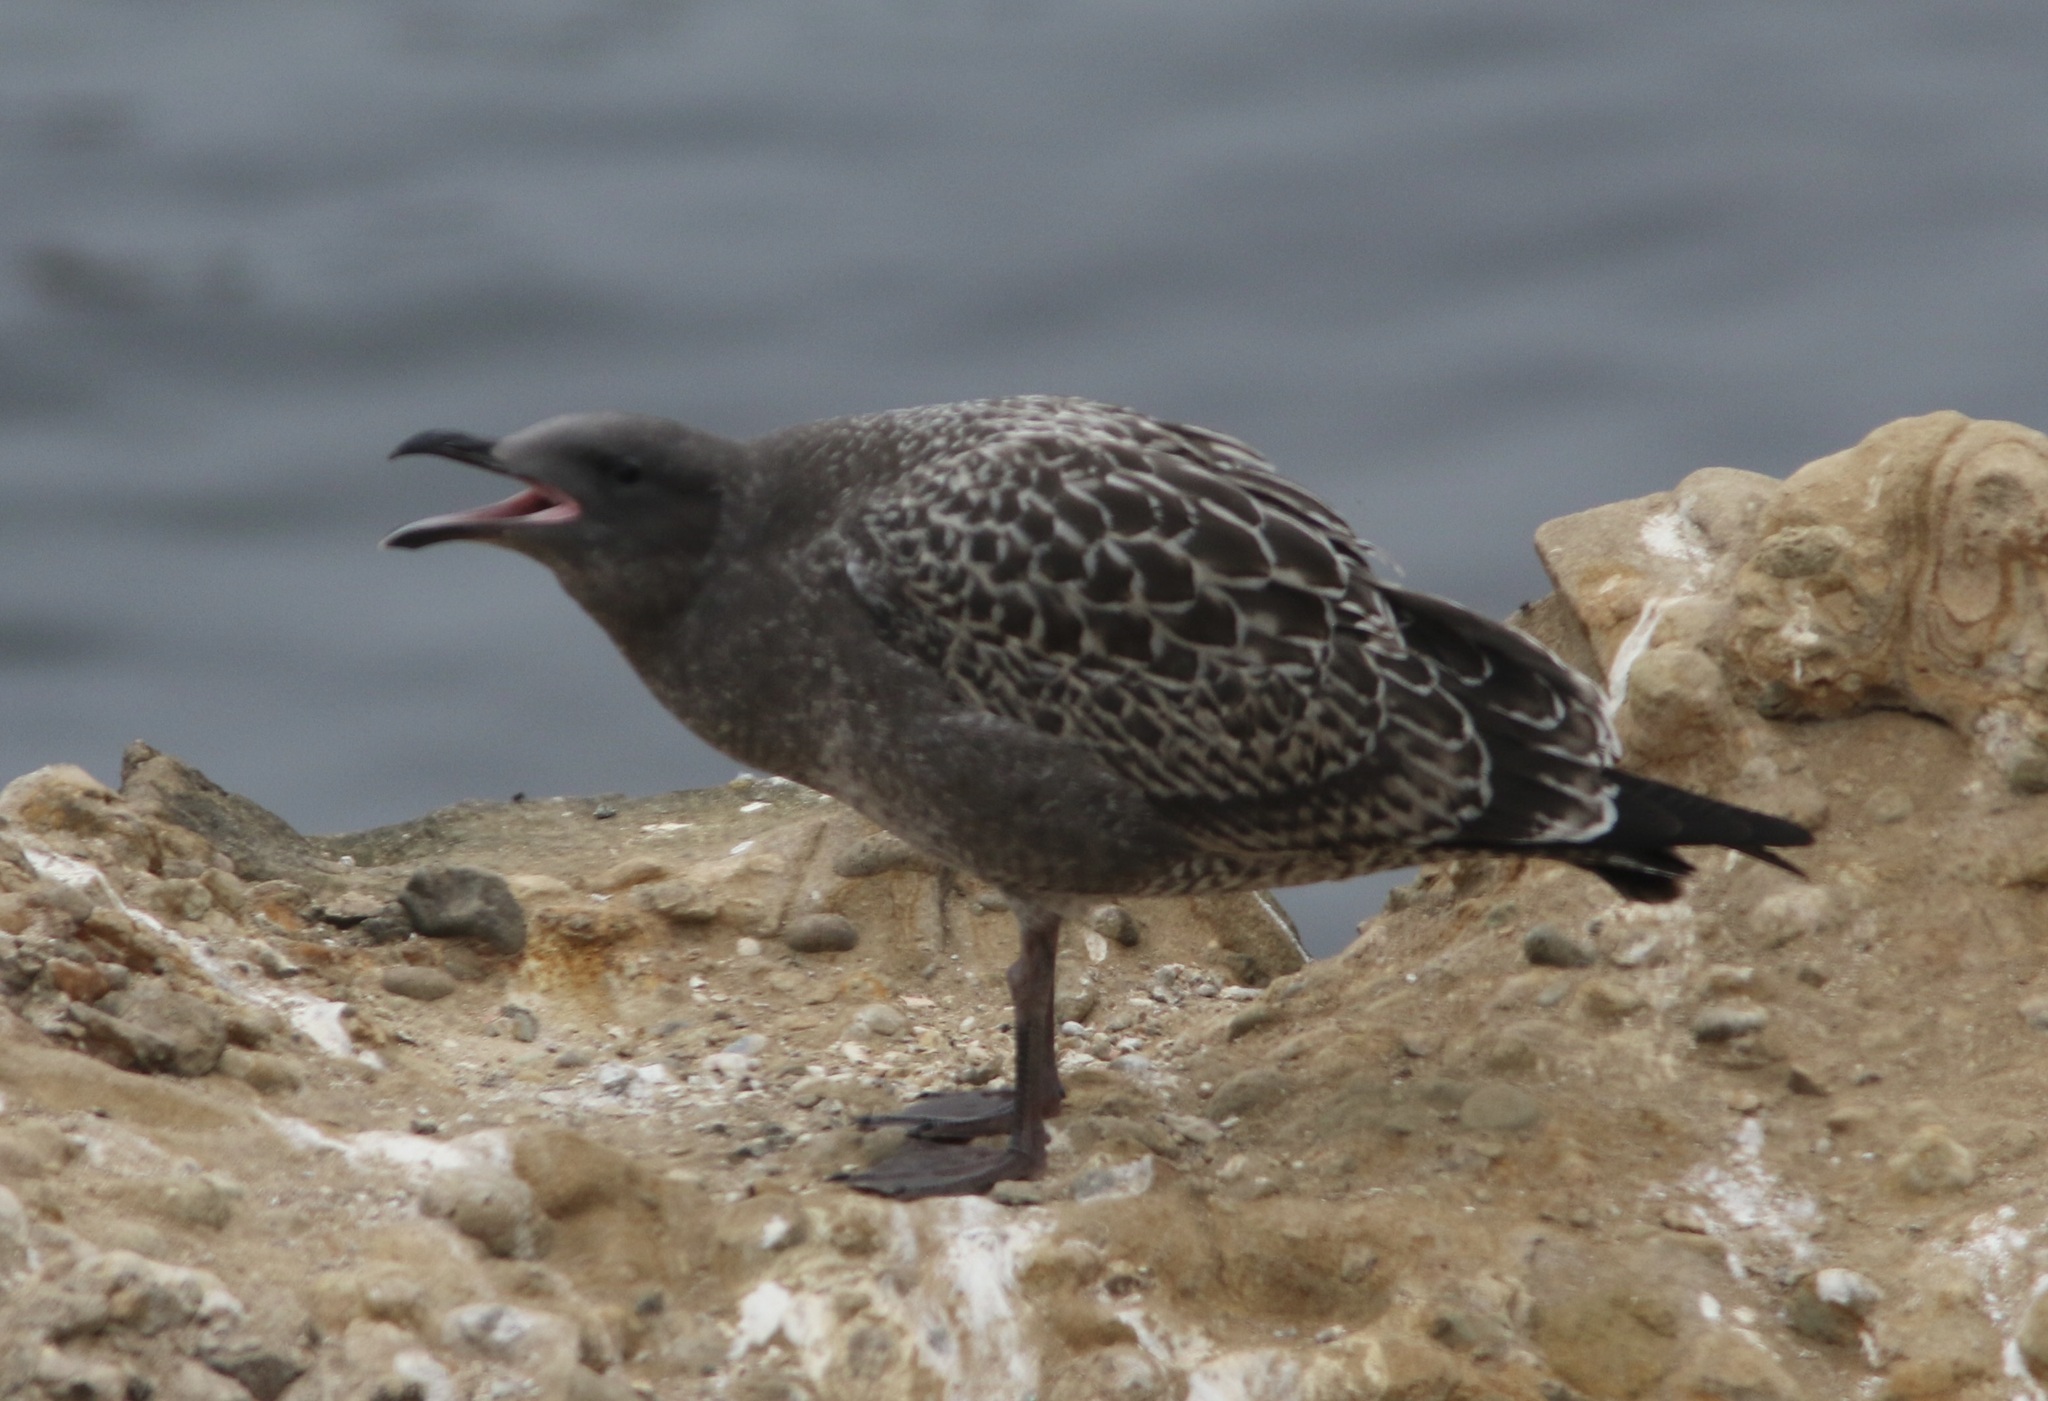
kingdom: Animalia
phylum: Chordata
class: Aves
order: Charadriiformes
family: Laridae
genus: Larus
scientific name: Larus occidentalis
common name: Western gull
